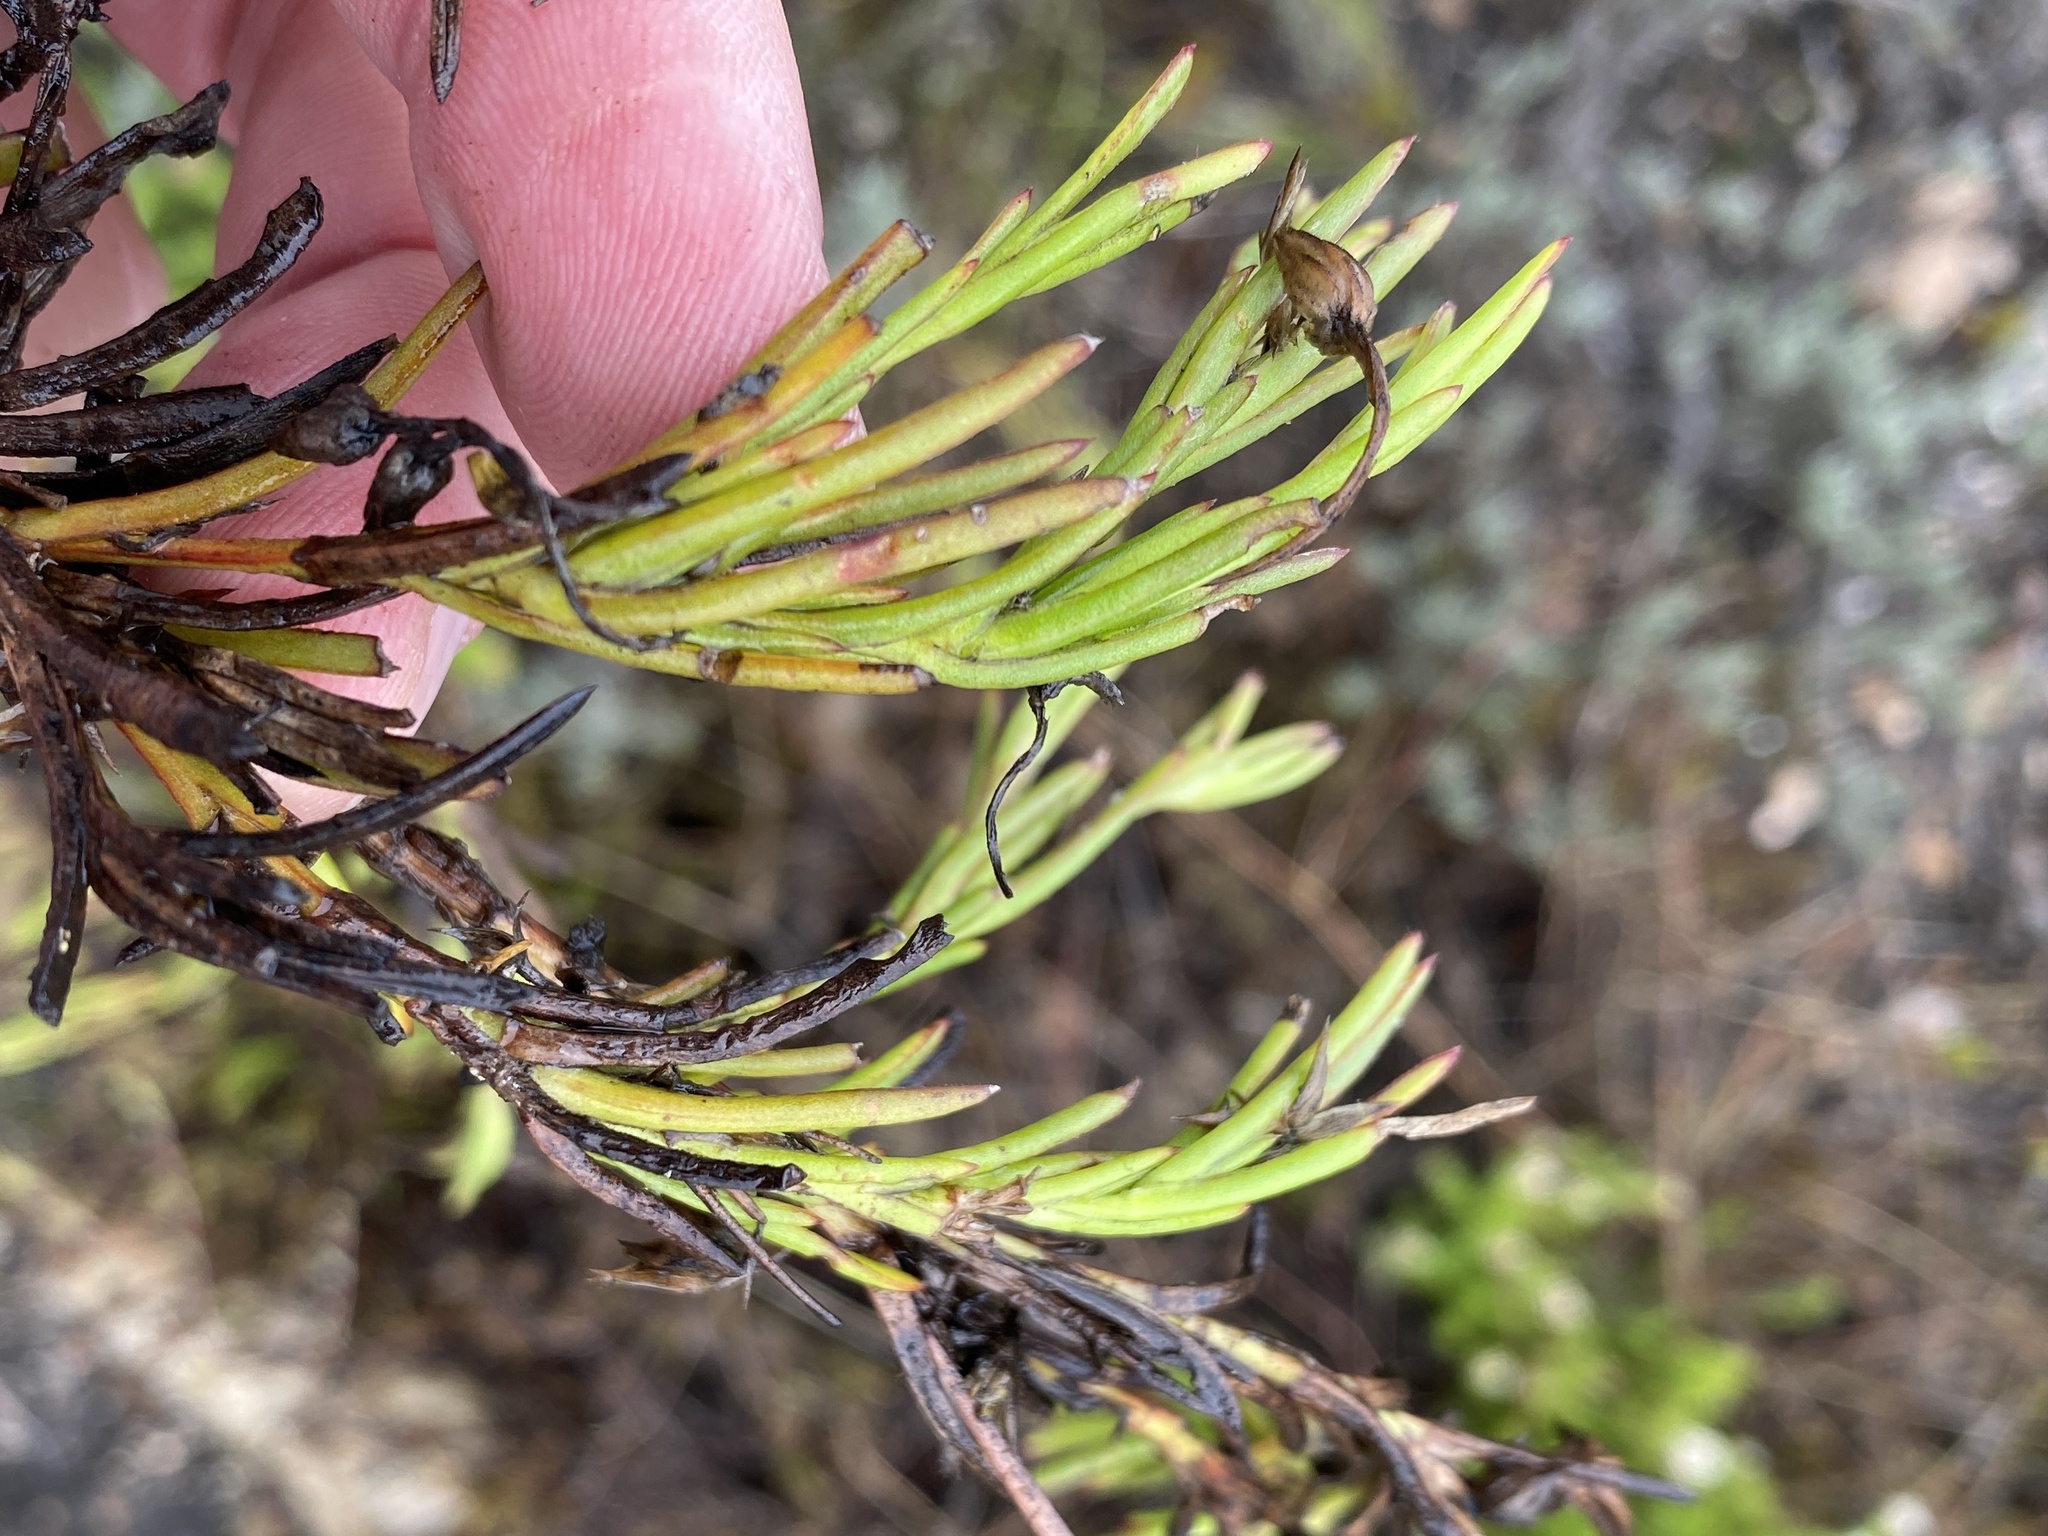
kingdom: Plantae
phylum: Tracheophyta
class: Magnoliopsida
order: Asterales
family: Asteraceae
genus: Osteospermum
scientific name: Osteospermum triquetrum
